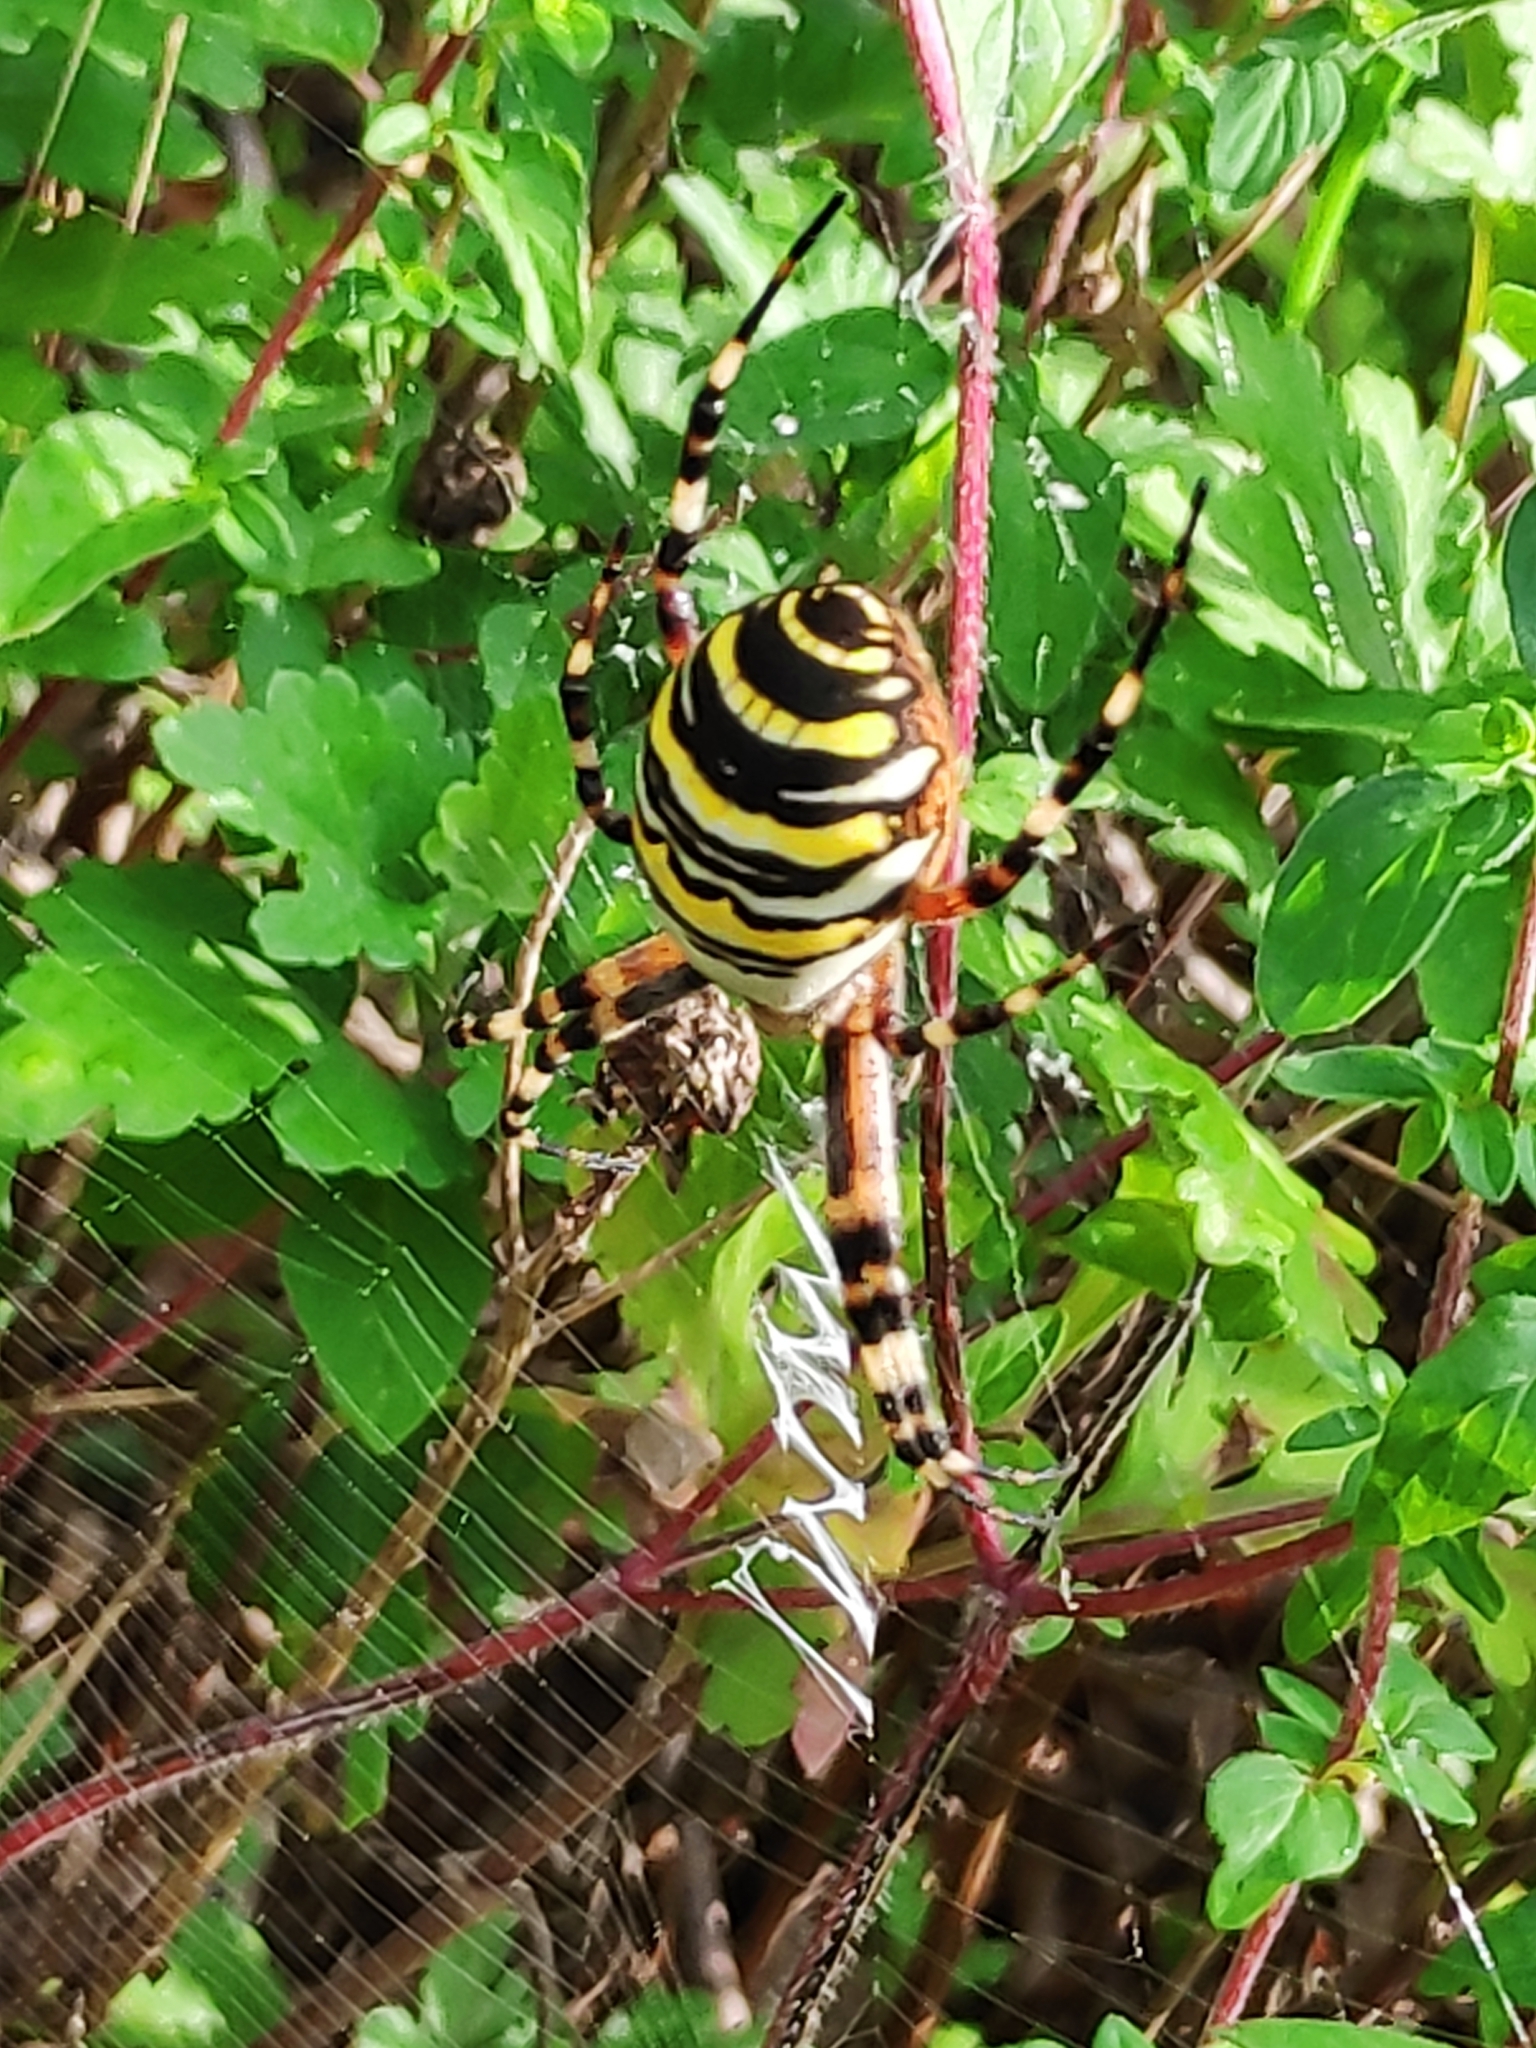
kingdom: Animalia
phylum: Arthropoda
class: Arachnida
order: Araneae
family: Araneidae
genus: Argiope
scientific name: Argiope bruennichi
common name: Wasp spider
